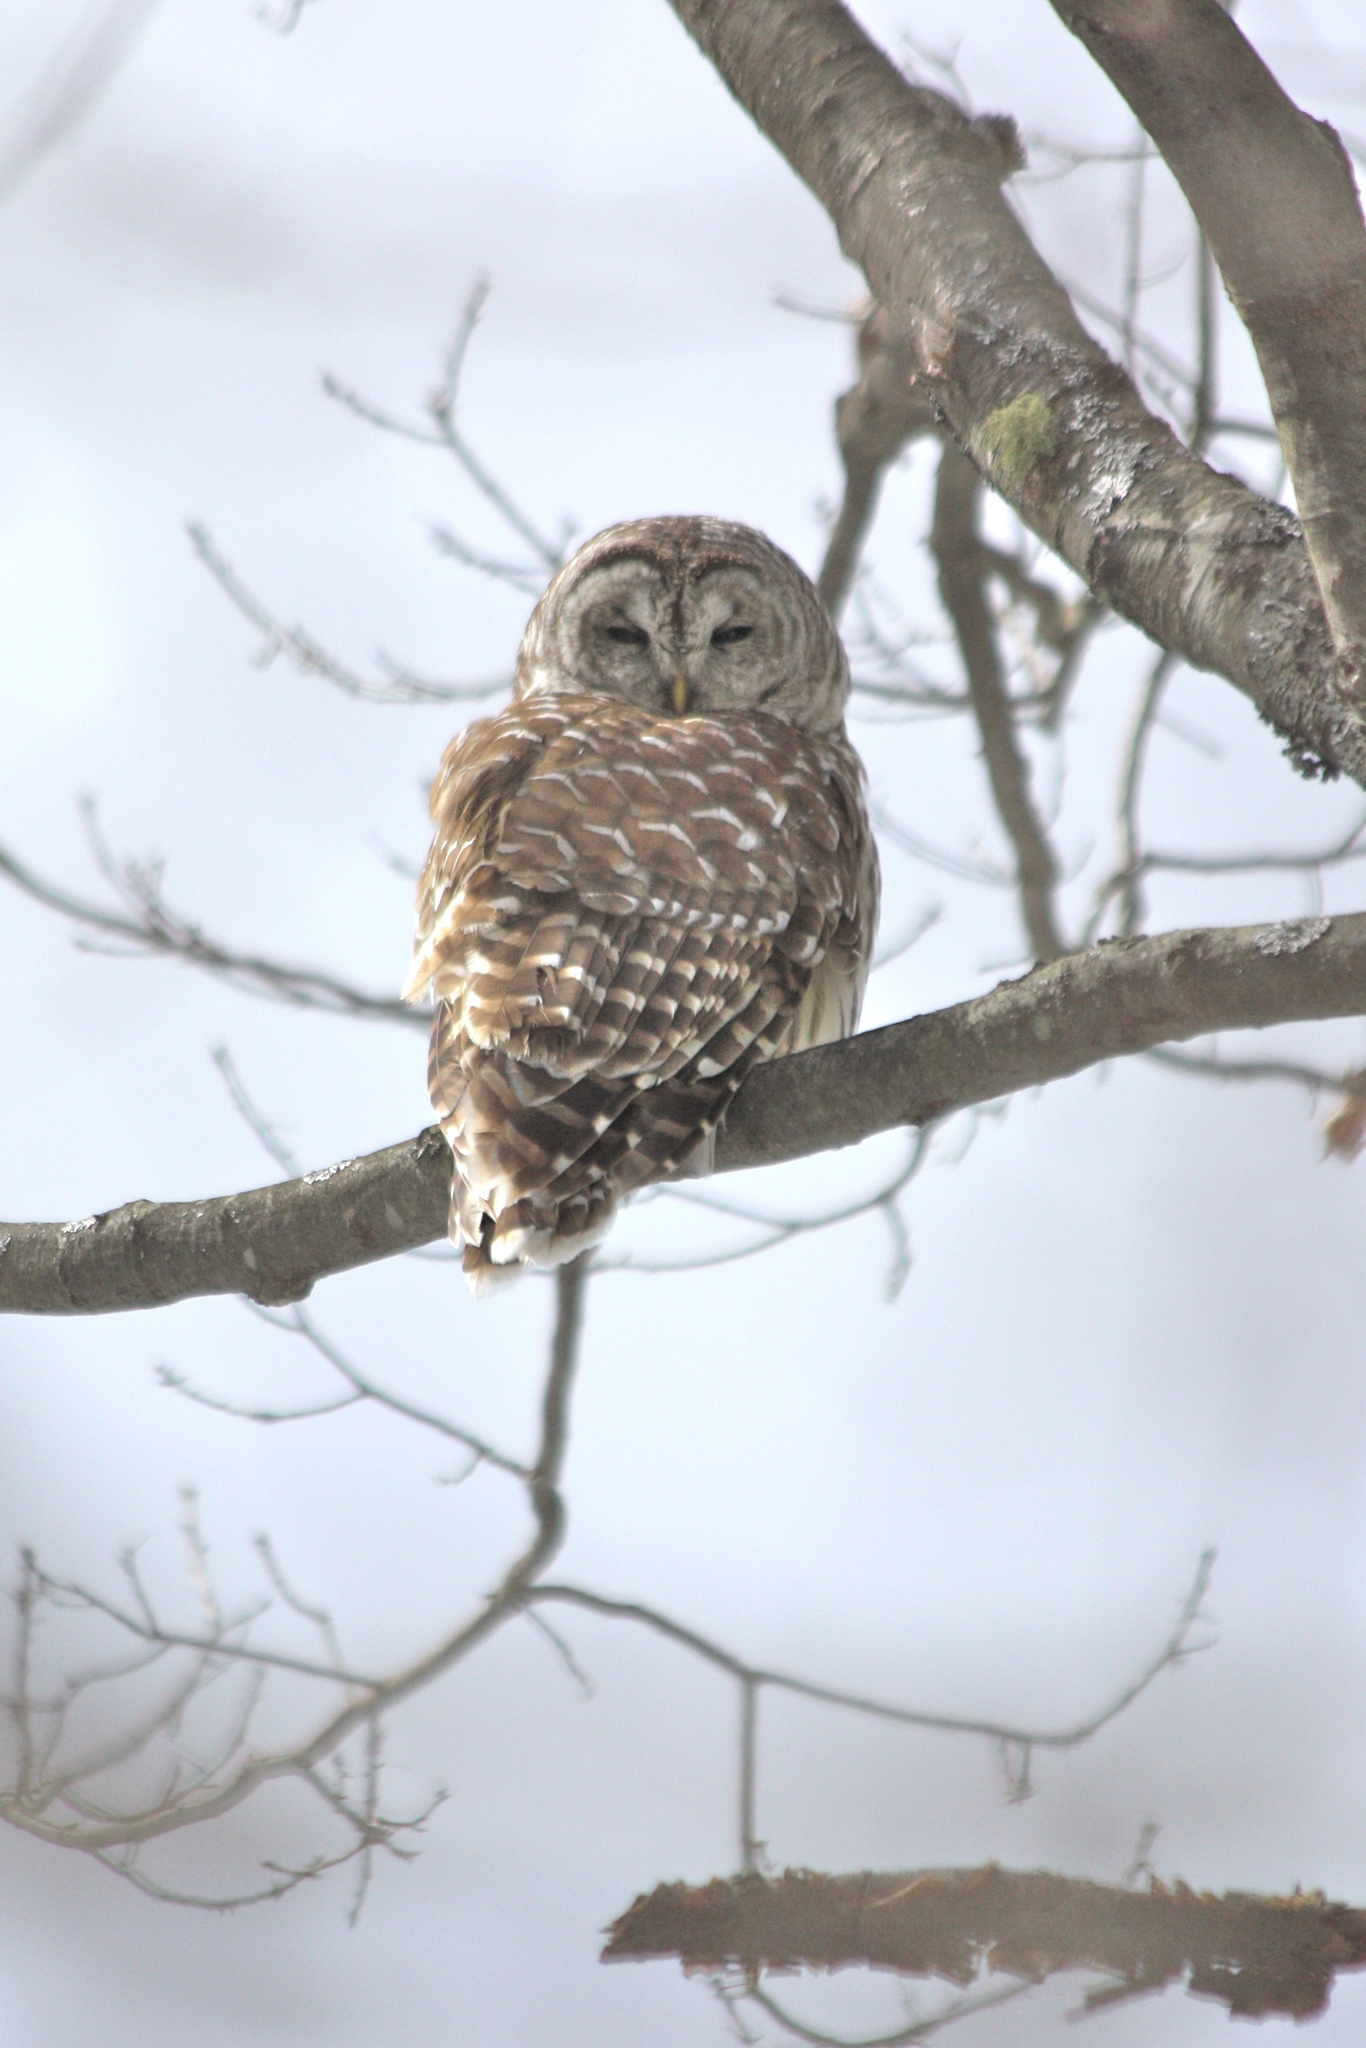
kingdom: Animalia
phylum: Chordata
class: Aves
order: Strigiformes
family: Strigidae
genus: Strix
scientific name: Strix varia
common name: Barred owl
